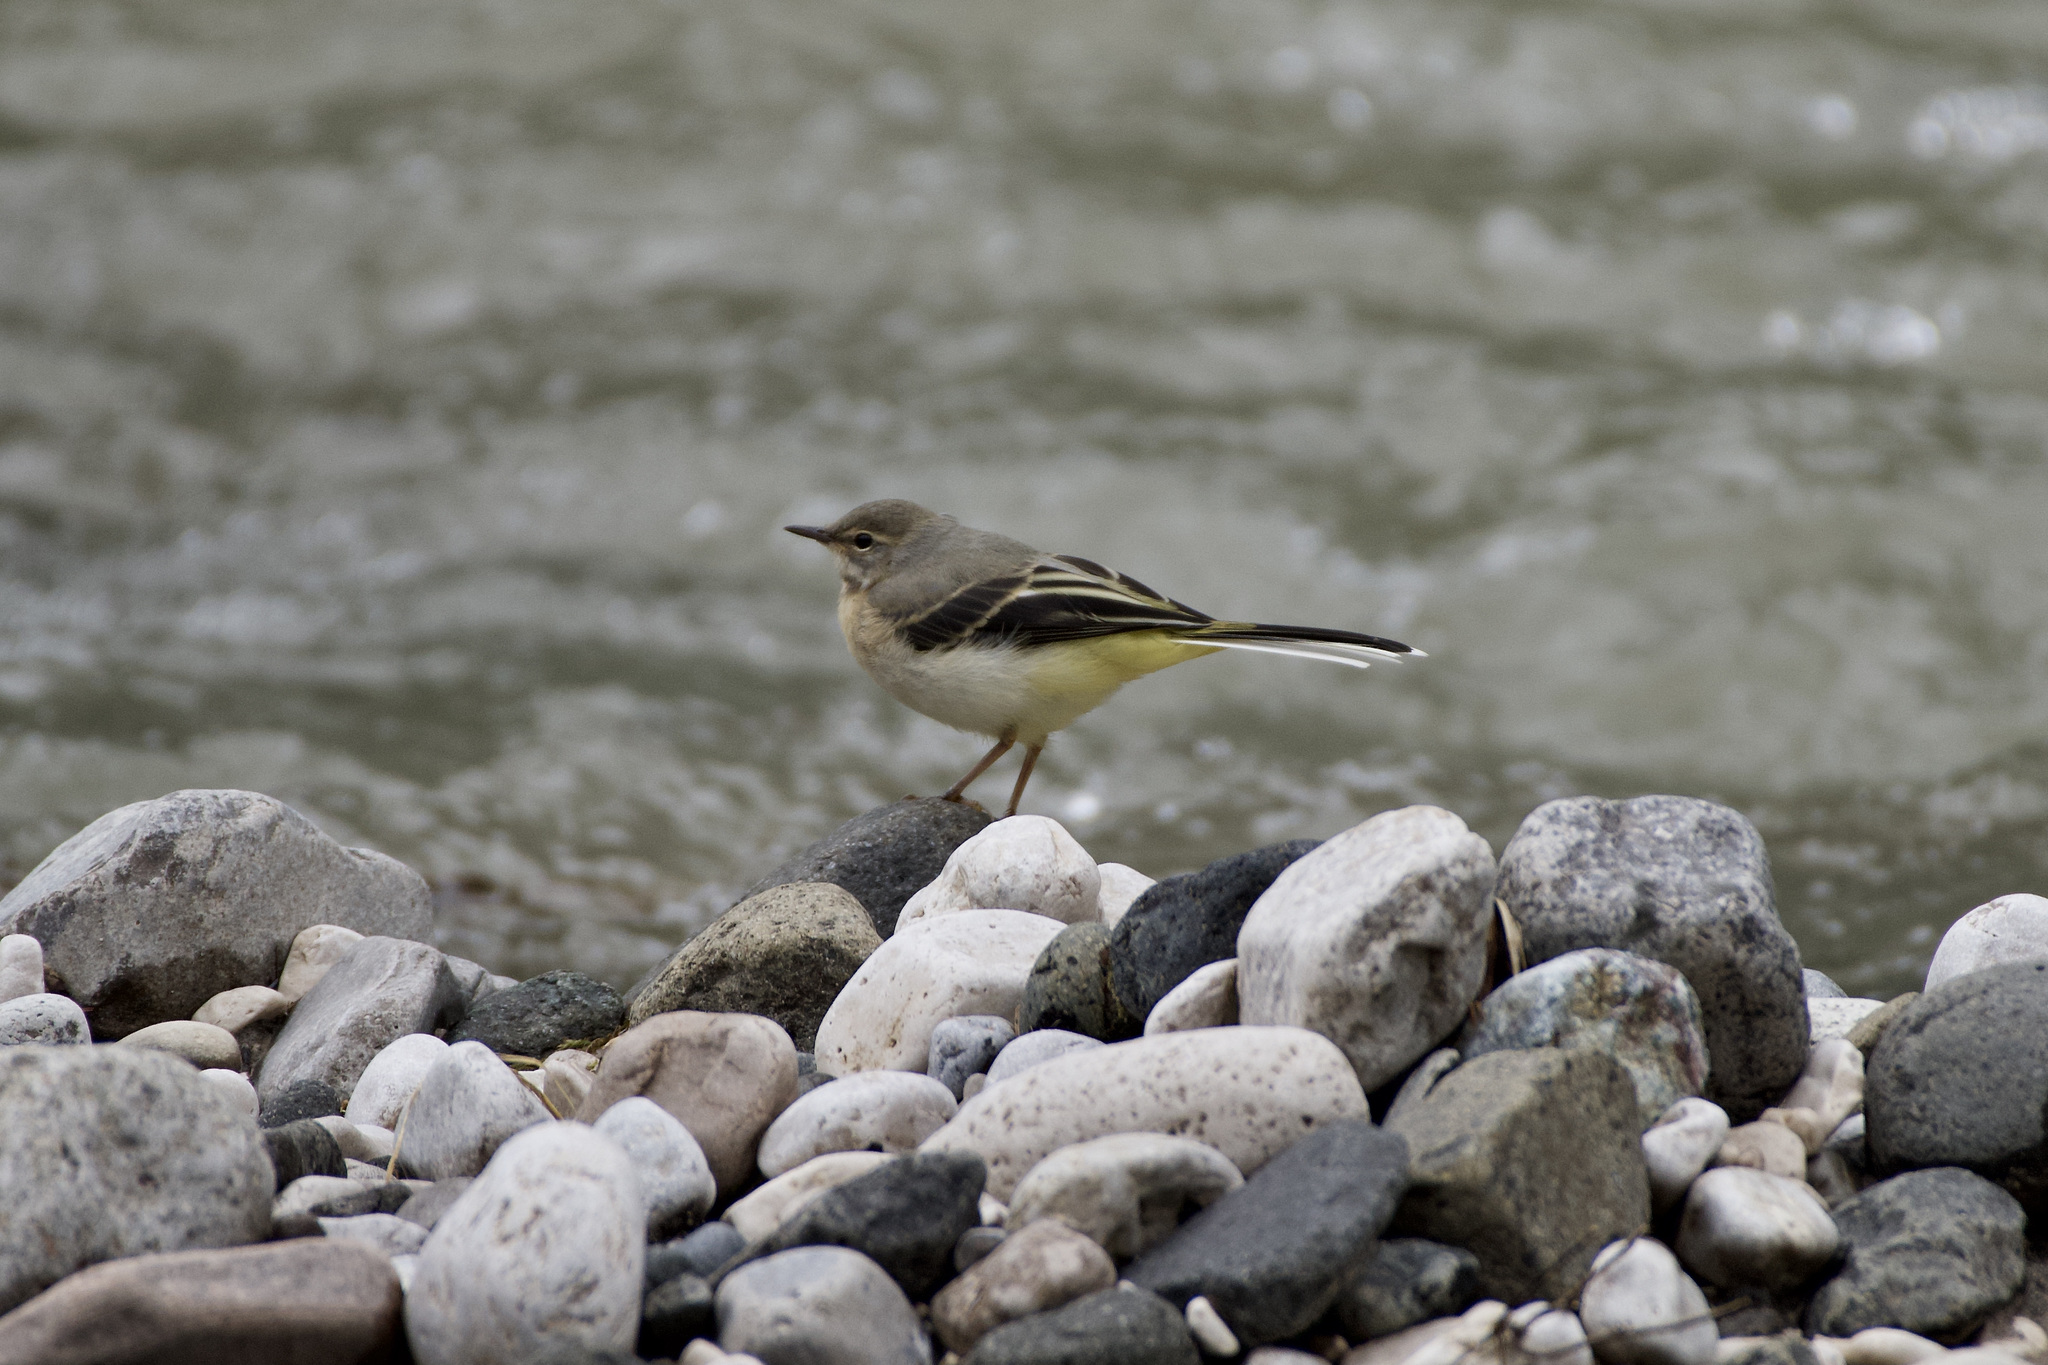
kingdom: Animalia
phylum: Chordata
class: Aves
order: Passeriformes
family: Motacillidae
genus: Motacilla
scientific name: Motacilla cinerea
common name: Grey wagtail
